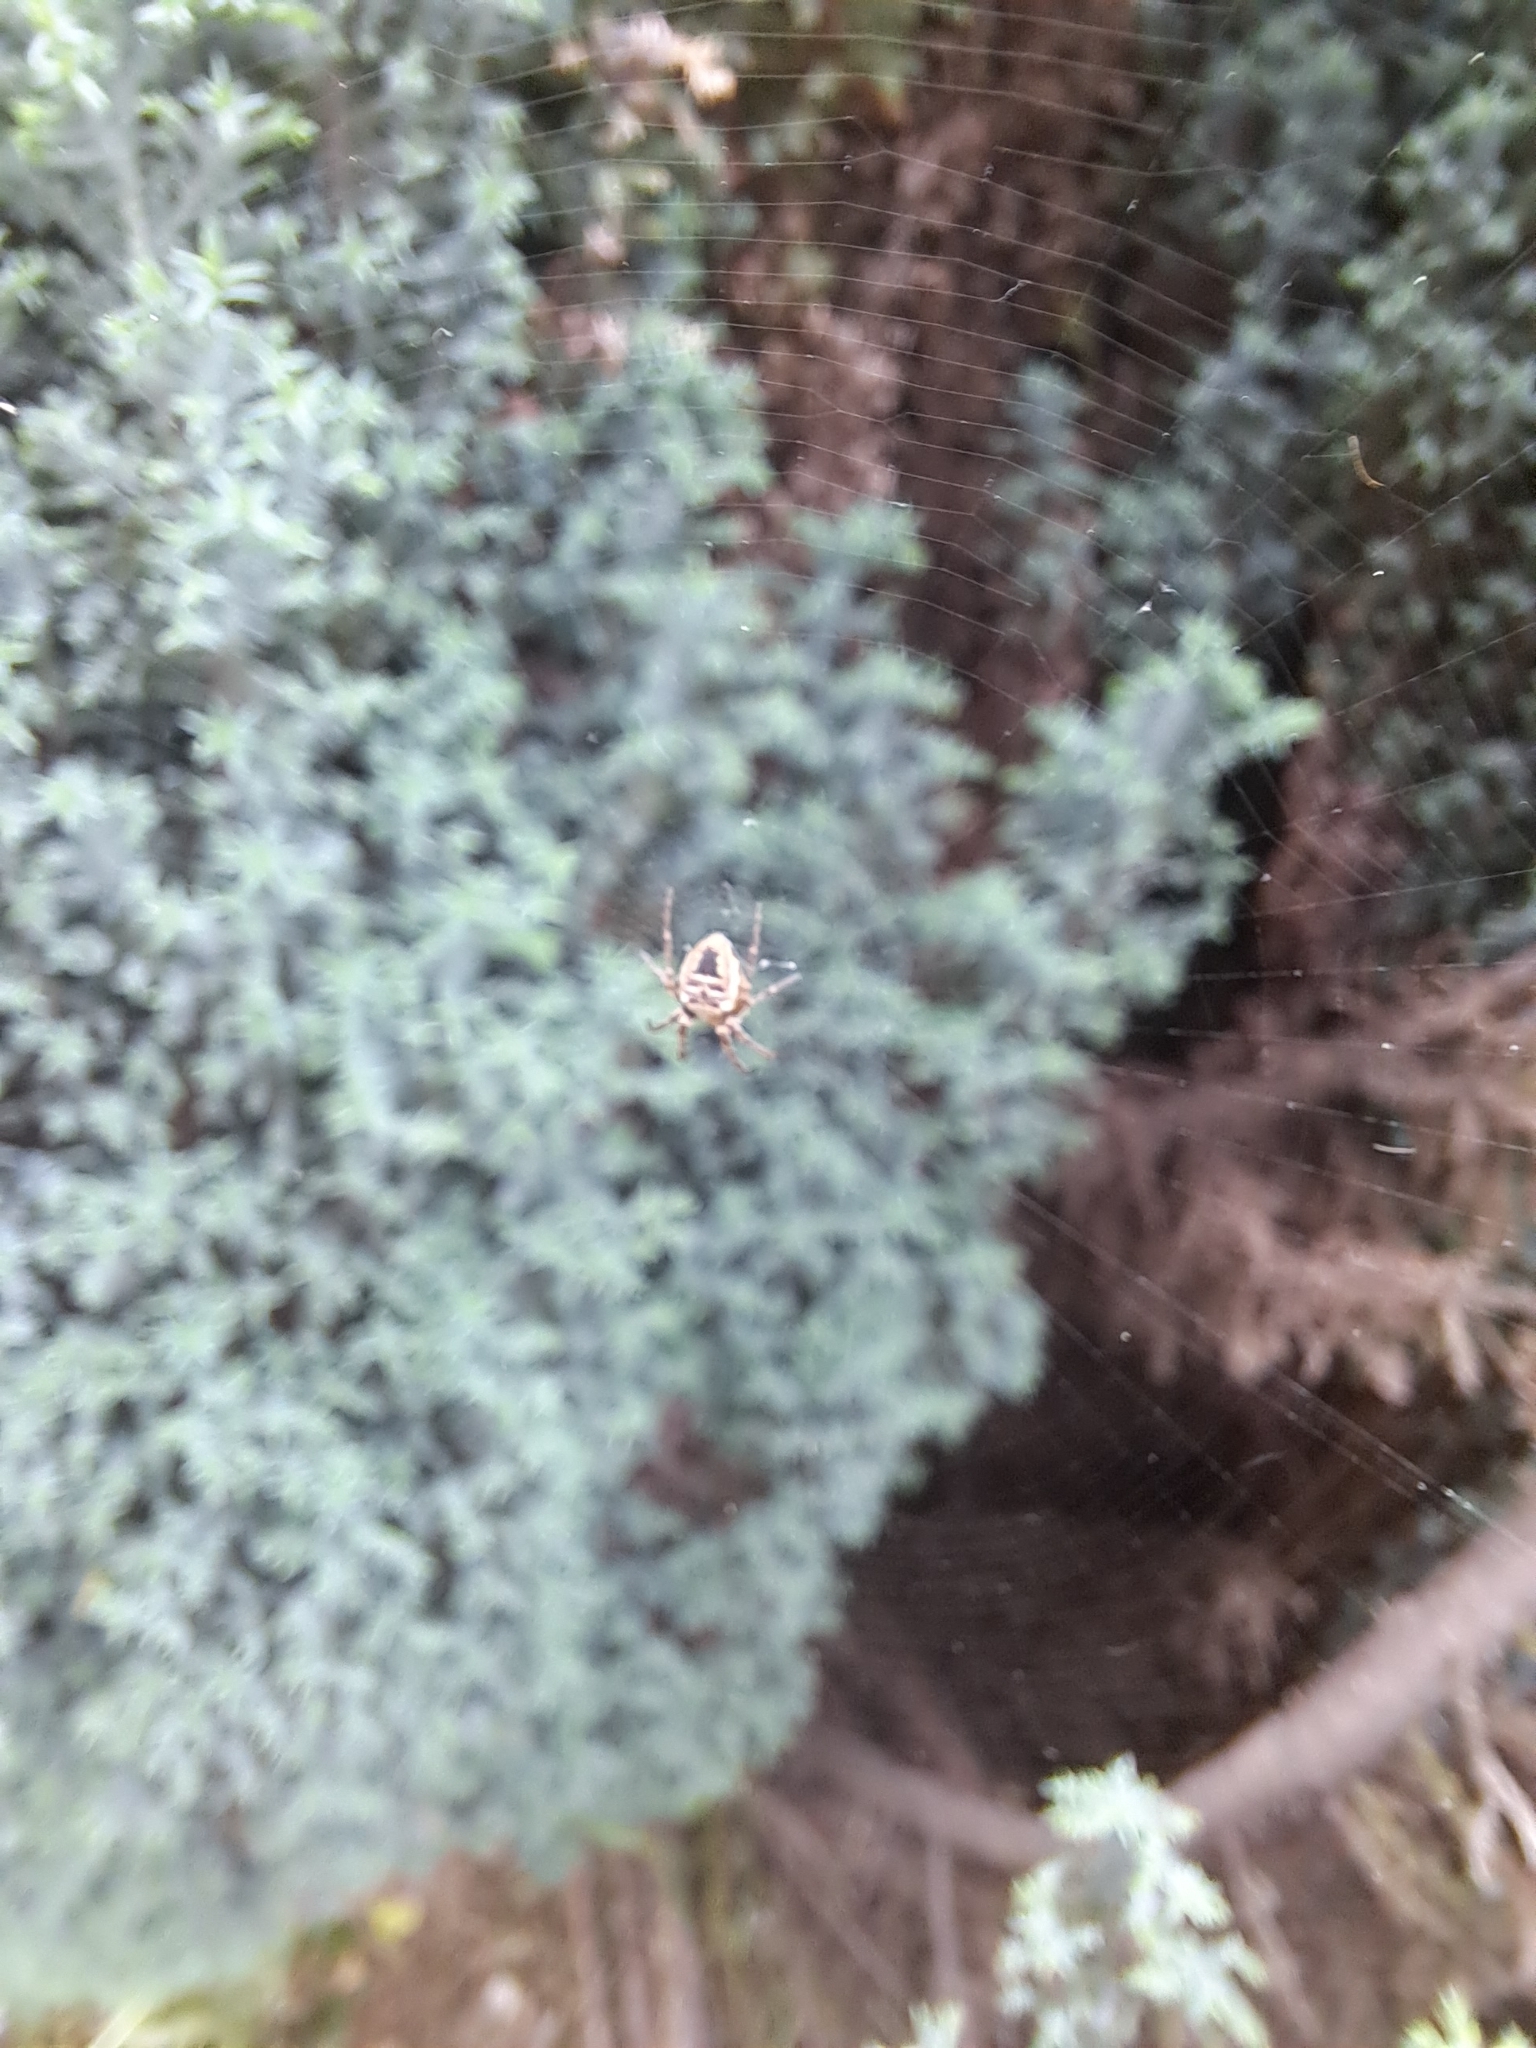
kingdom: Animalia
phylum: Arthropoda
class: Arachnida
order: Araneae
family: Araneidae
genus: Zilla
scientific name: Zilla diodia
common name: Zilla diodia
